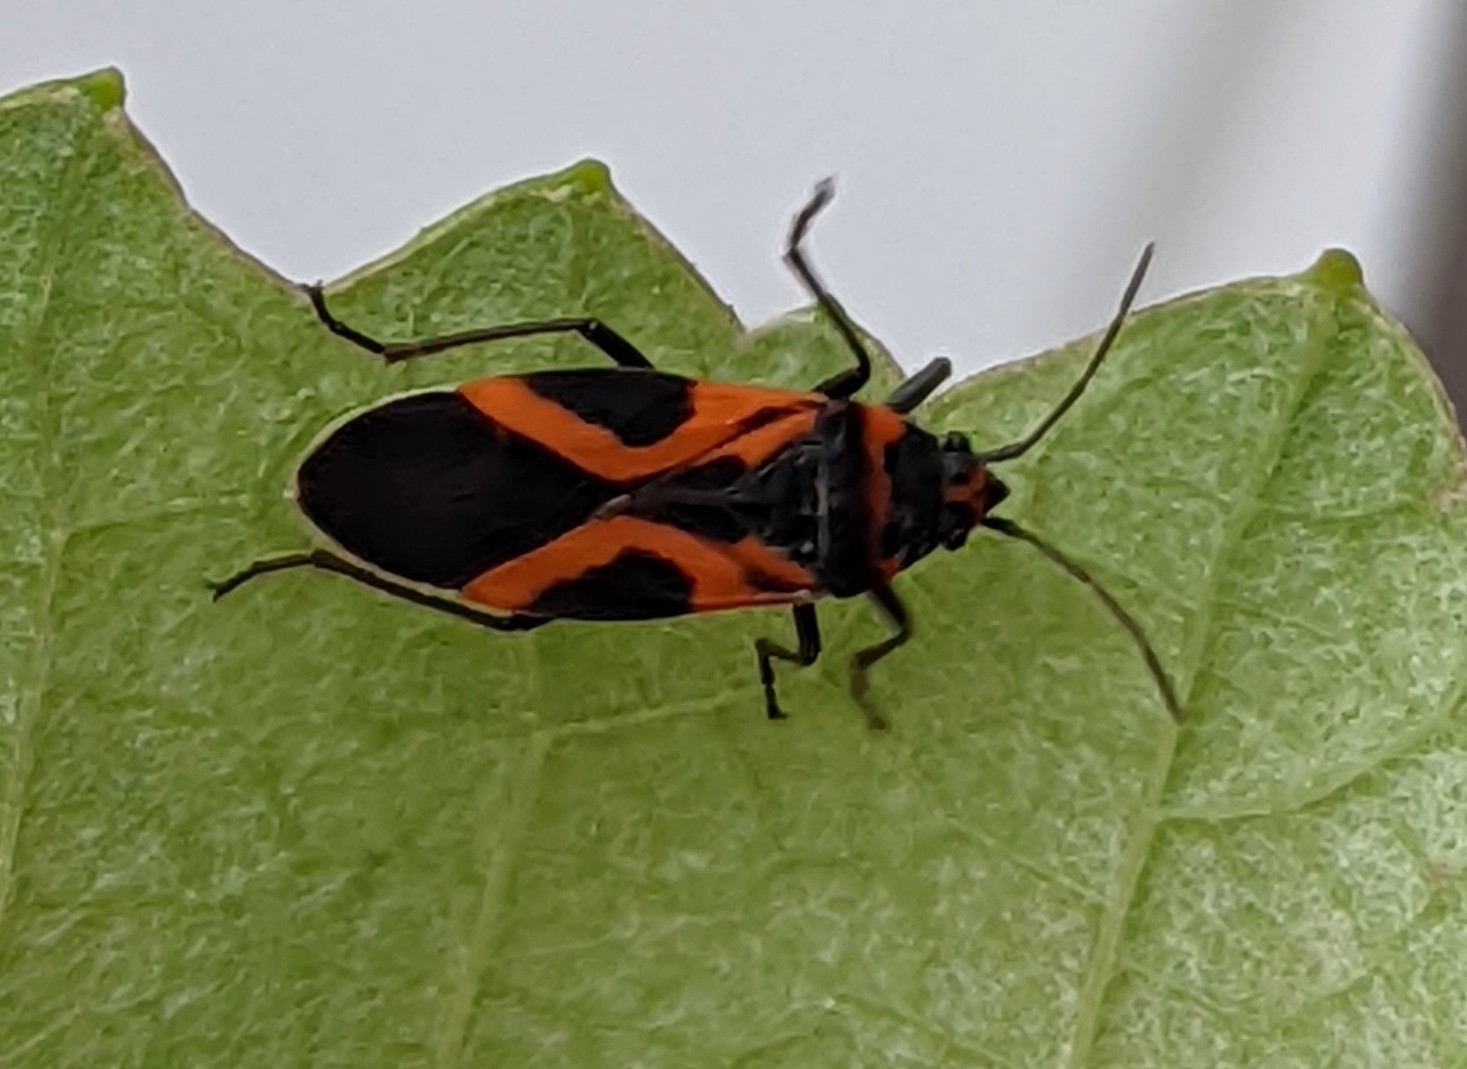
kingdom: Animalia
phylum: Arthropoda
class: Insecta
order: Hemiptera
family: Lygaeidae
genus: Lygaeus
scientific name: Lygaeus turcicus
